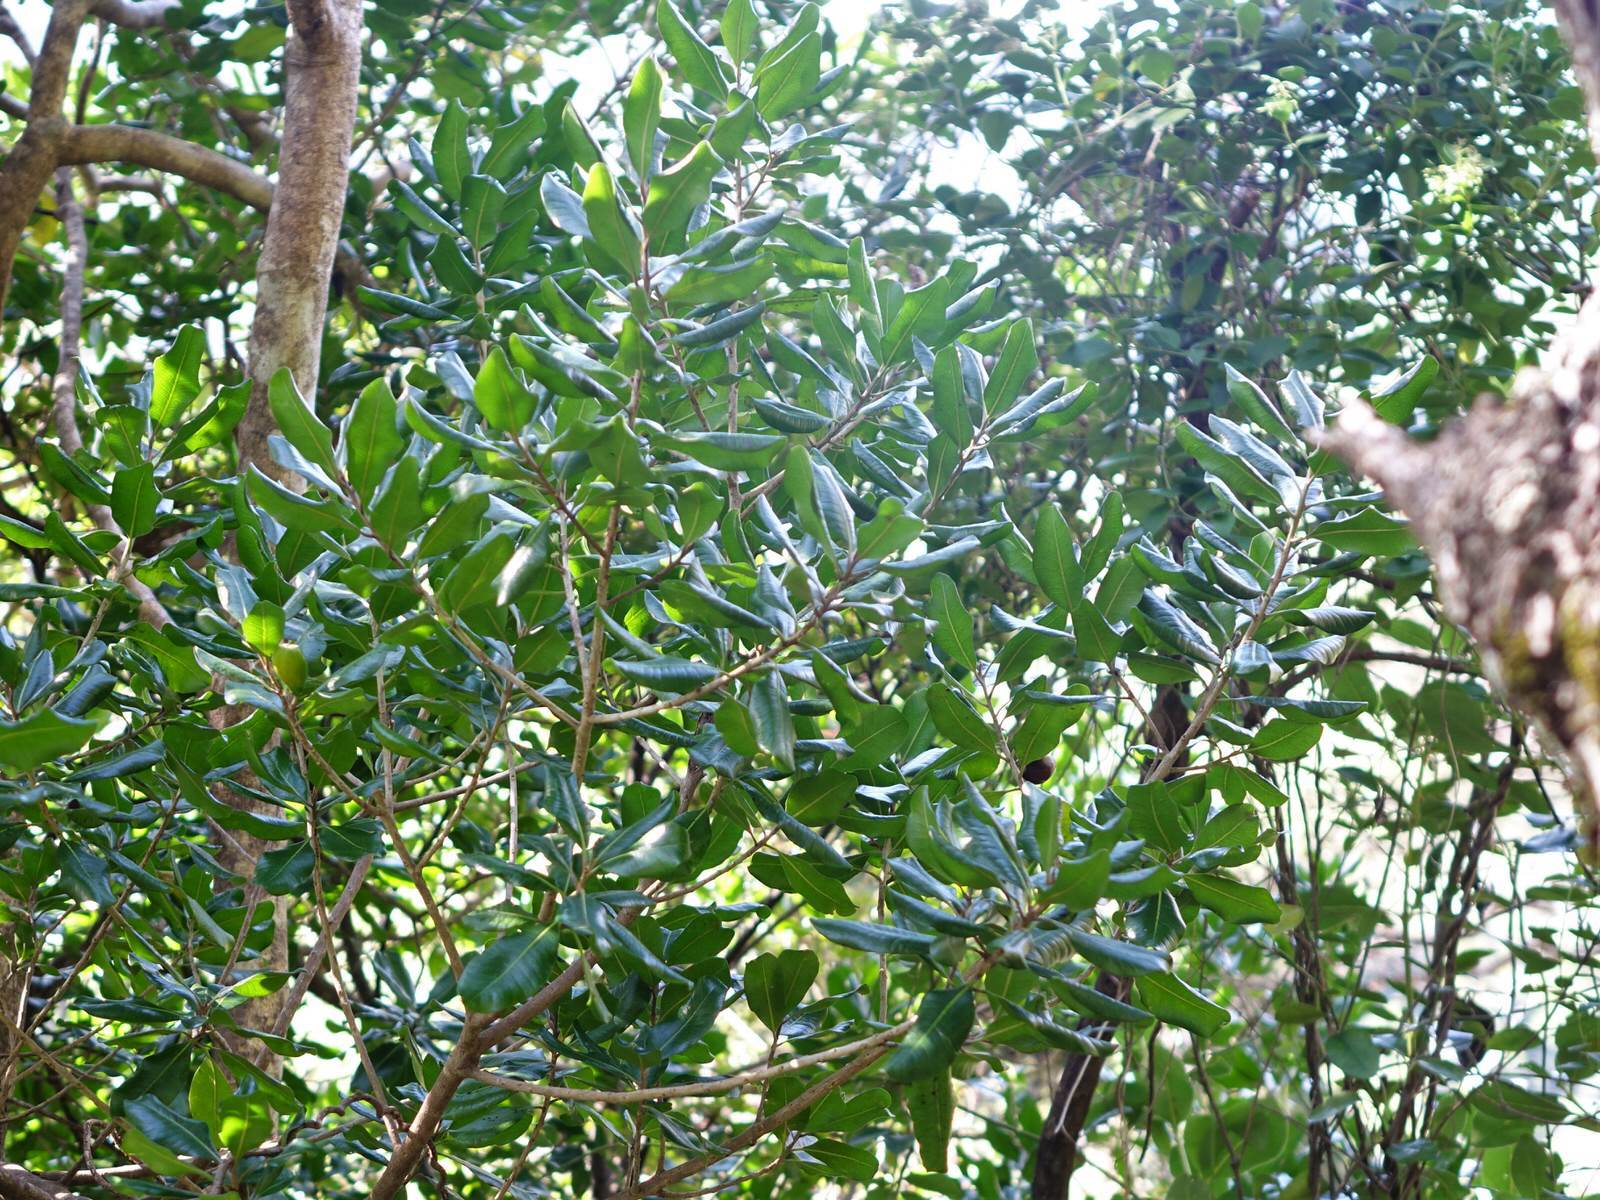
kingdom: Plantae
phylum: Tracheophyta
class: Magnoliopsida
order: Ericales
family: Sapotaceae
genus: Planchonella
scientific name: Planchonella costata
